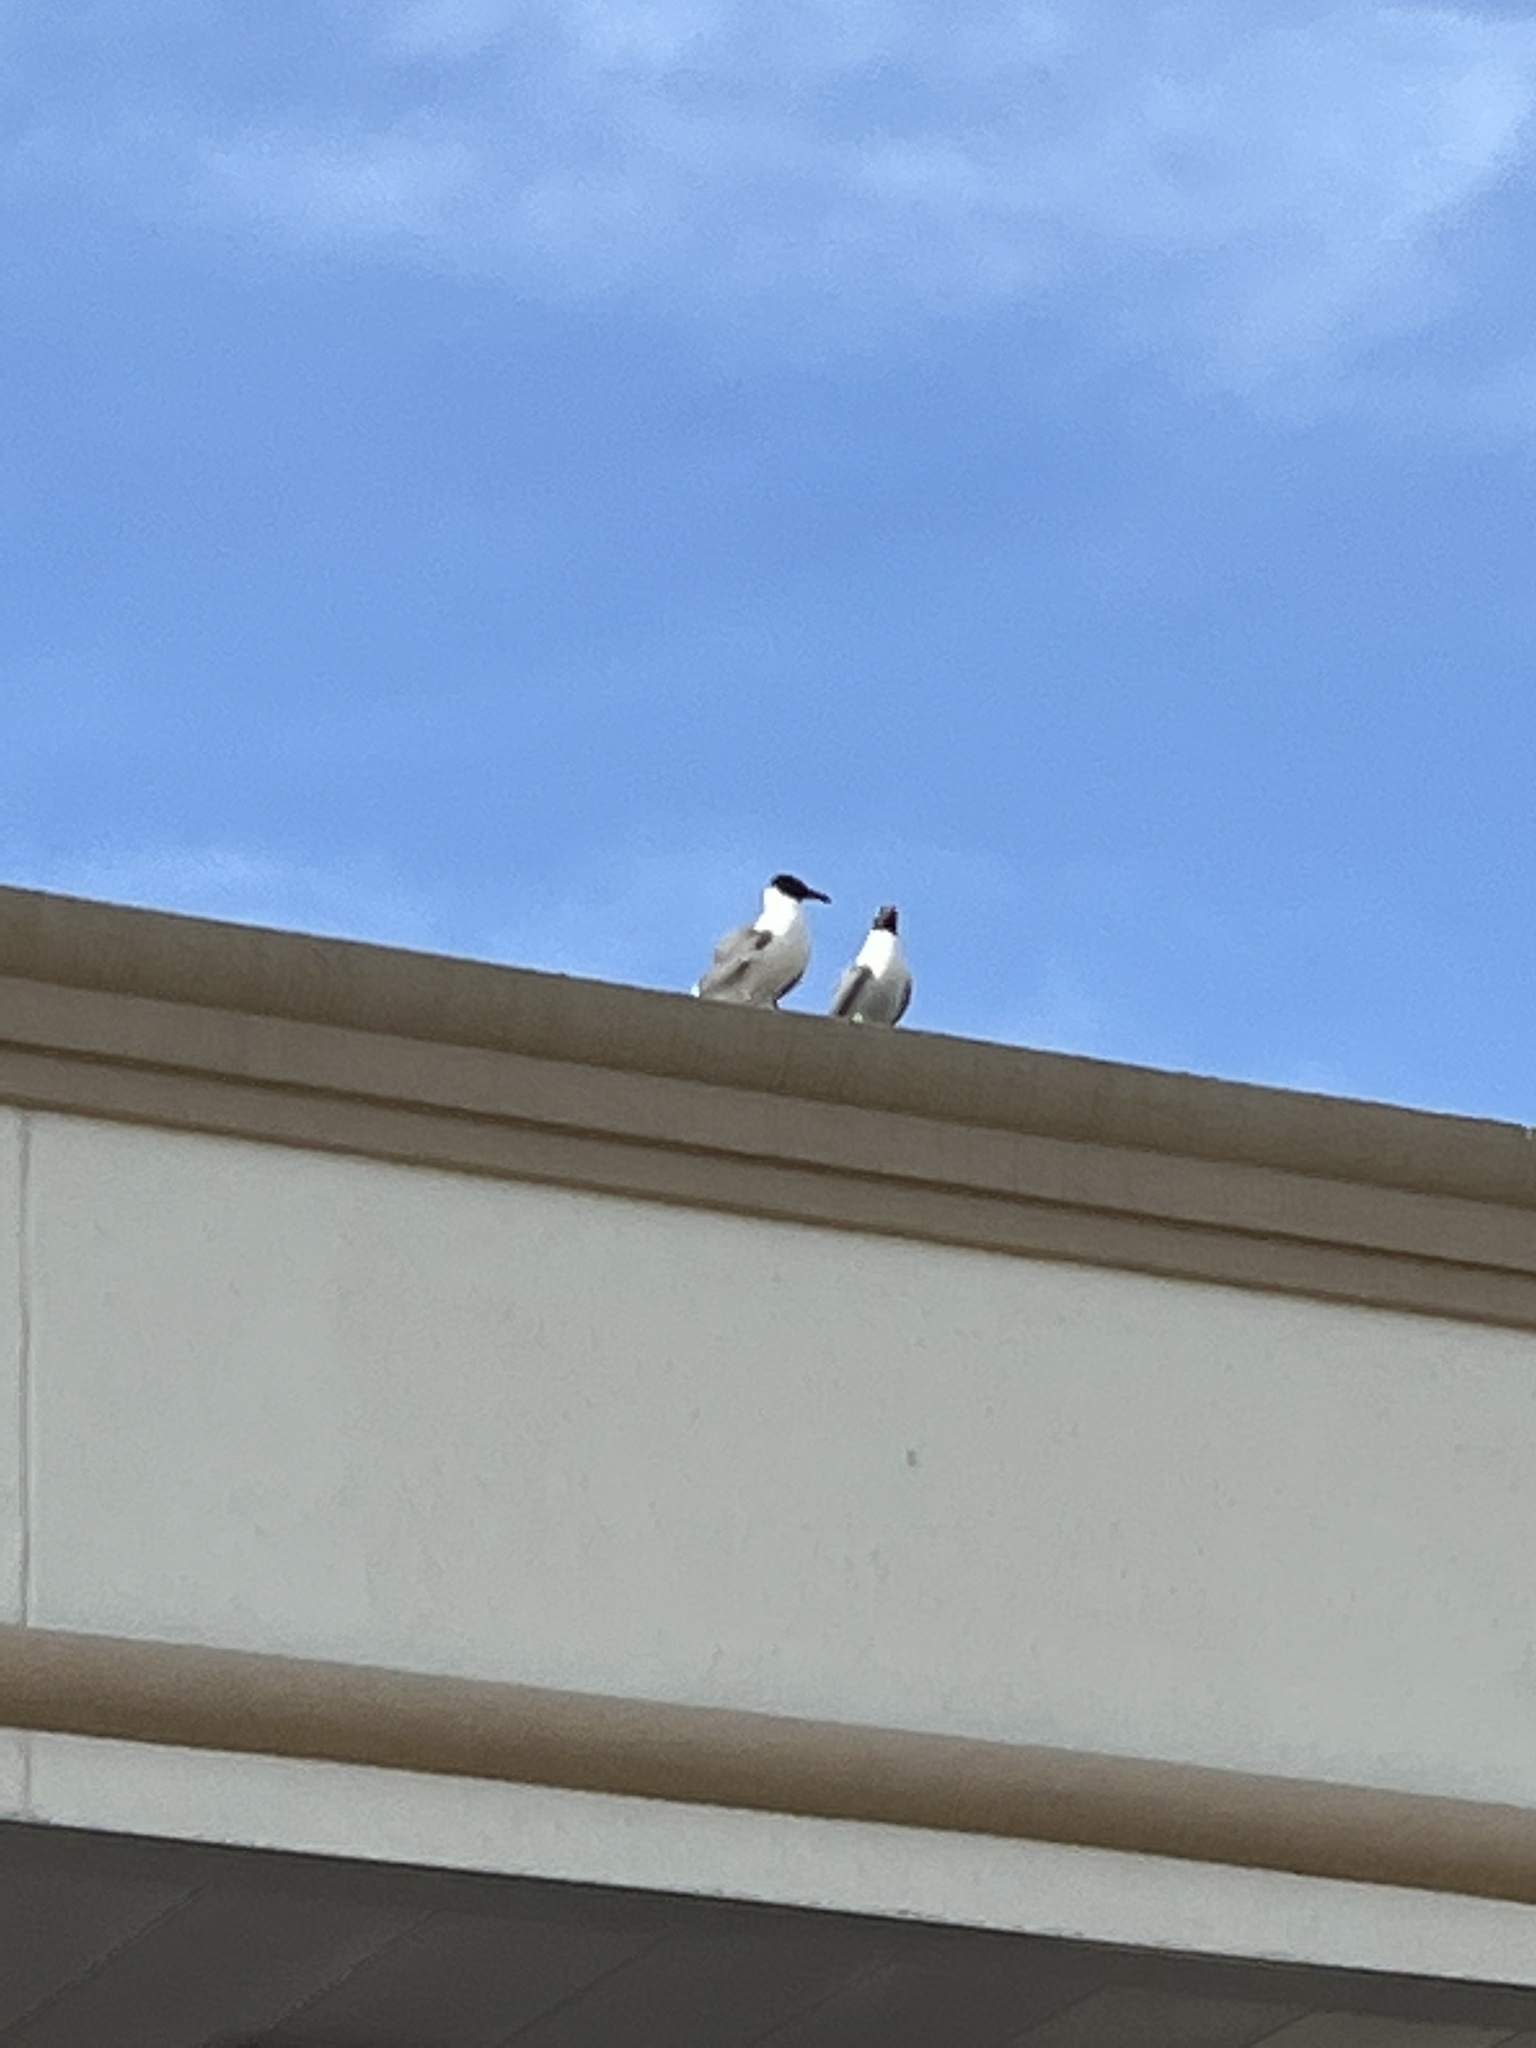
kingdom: Animalia
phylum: Chordata
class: Aves
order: Charadriiformes
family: Laridae
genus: Leucophaeus
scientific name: Leucophaeus atricilla
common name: Laughing gull
